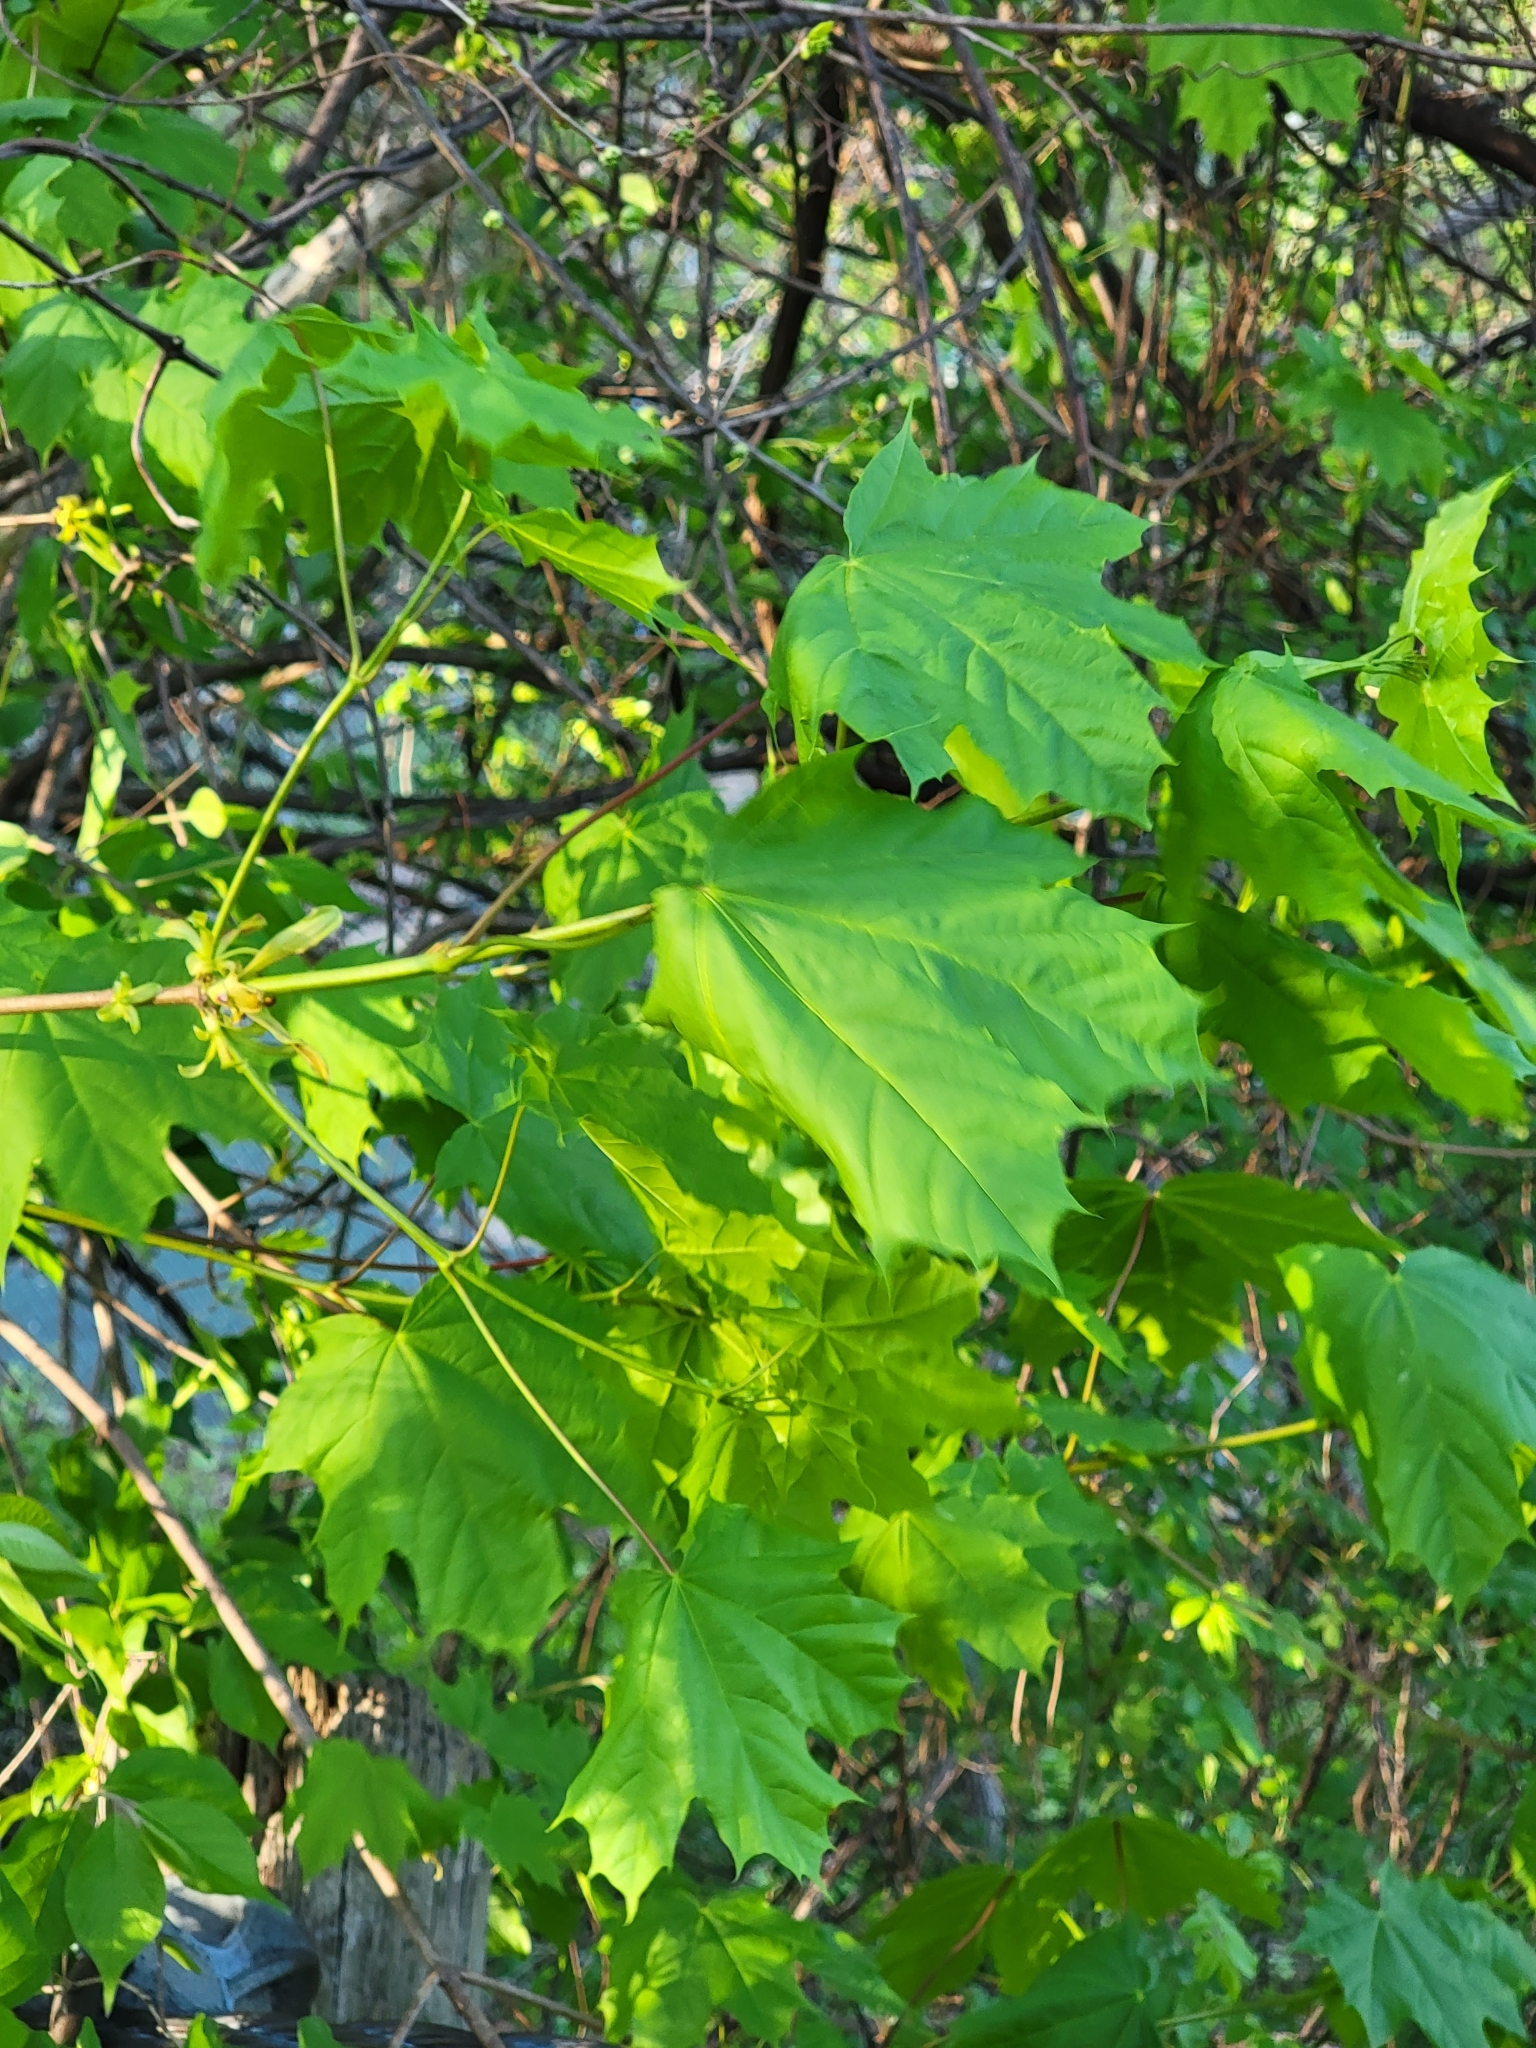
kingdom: Plantae
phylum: Tracheophyta
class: Magnoliopsida
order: Sapindales
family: Sapindaceae
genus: Acer
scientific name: Acer platanoides
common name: Norway maple
